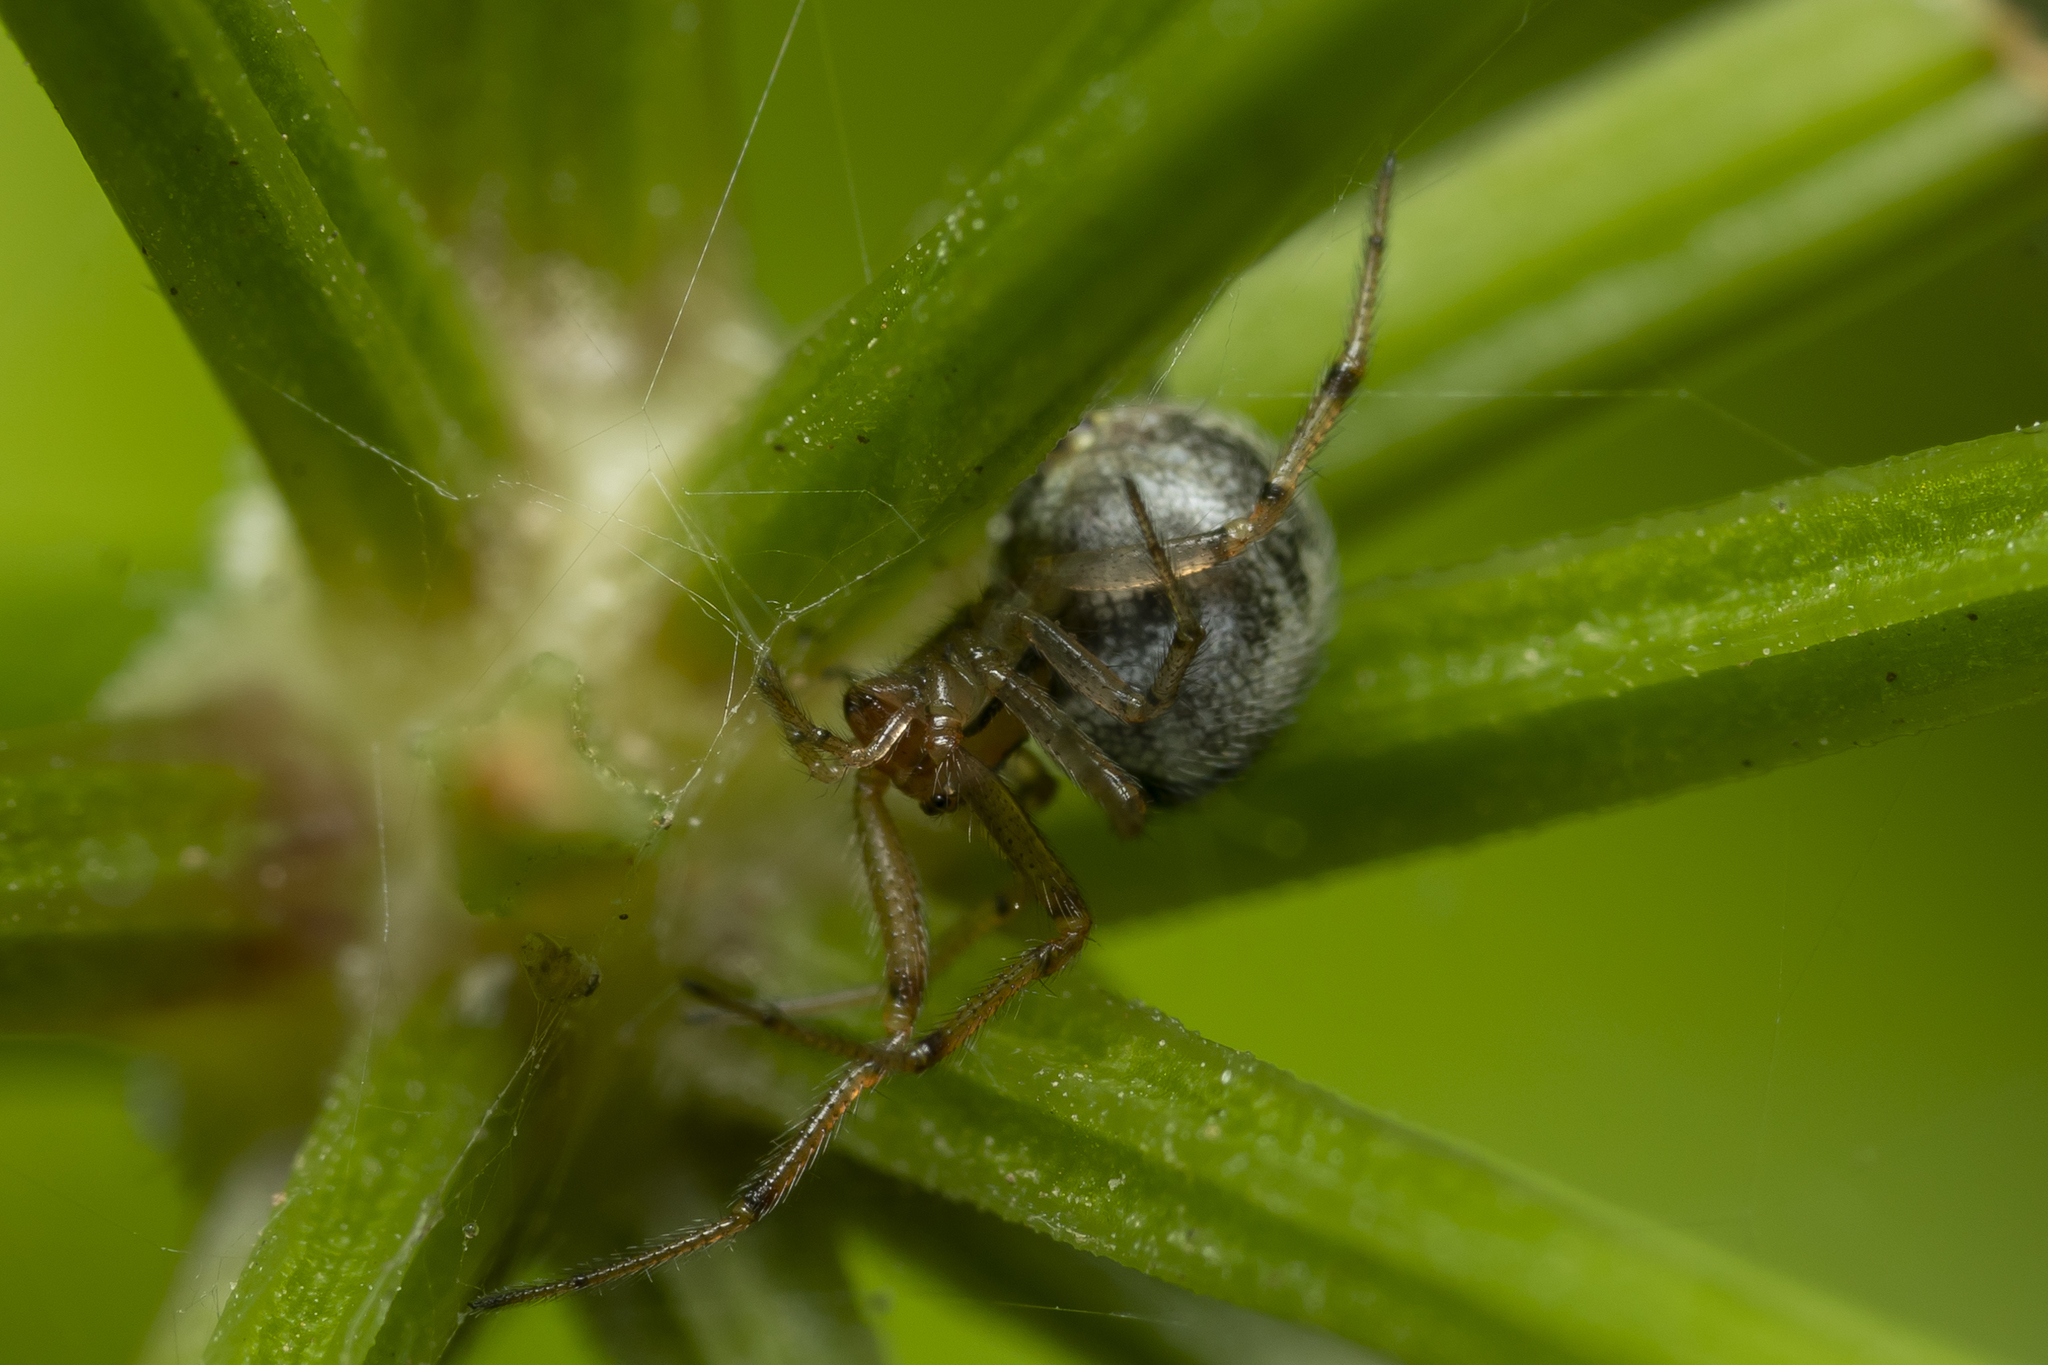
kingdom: Animalia
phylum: Arthropoda
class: Arachnida
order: Araneae
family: Theridiidae
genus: Kochiura
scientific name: Kochiura aulica
